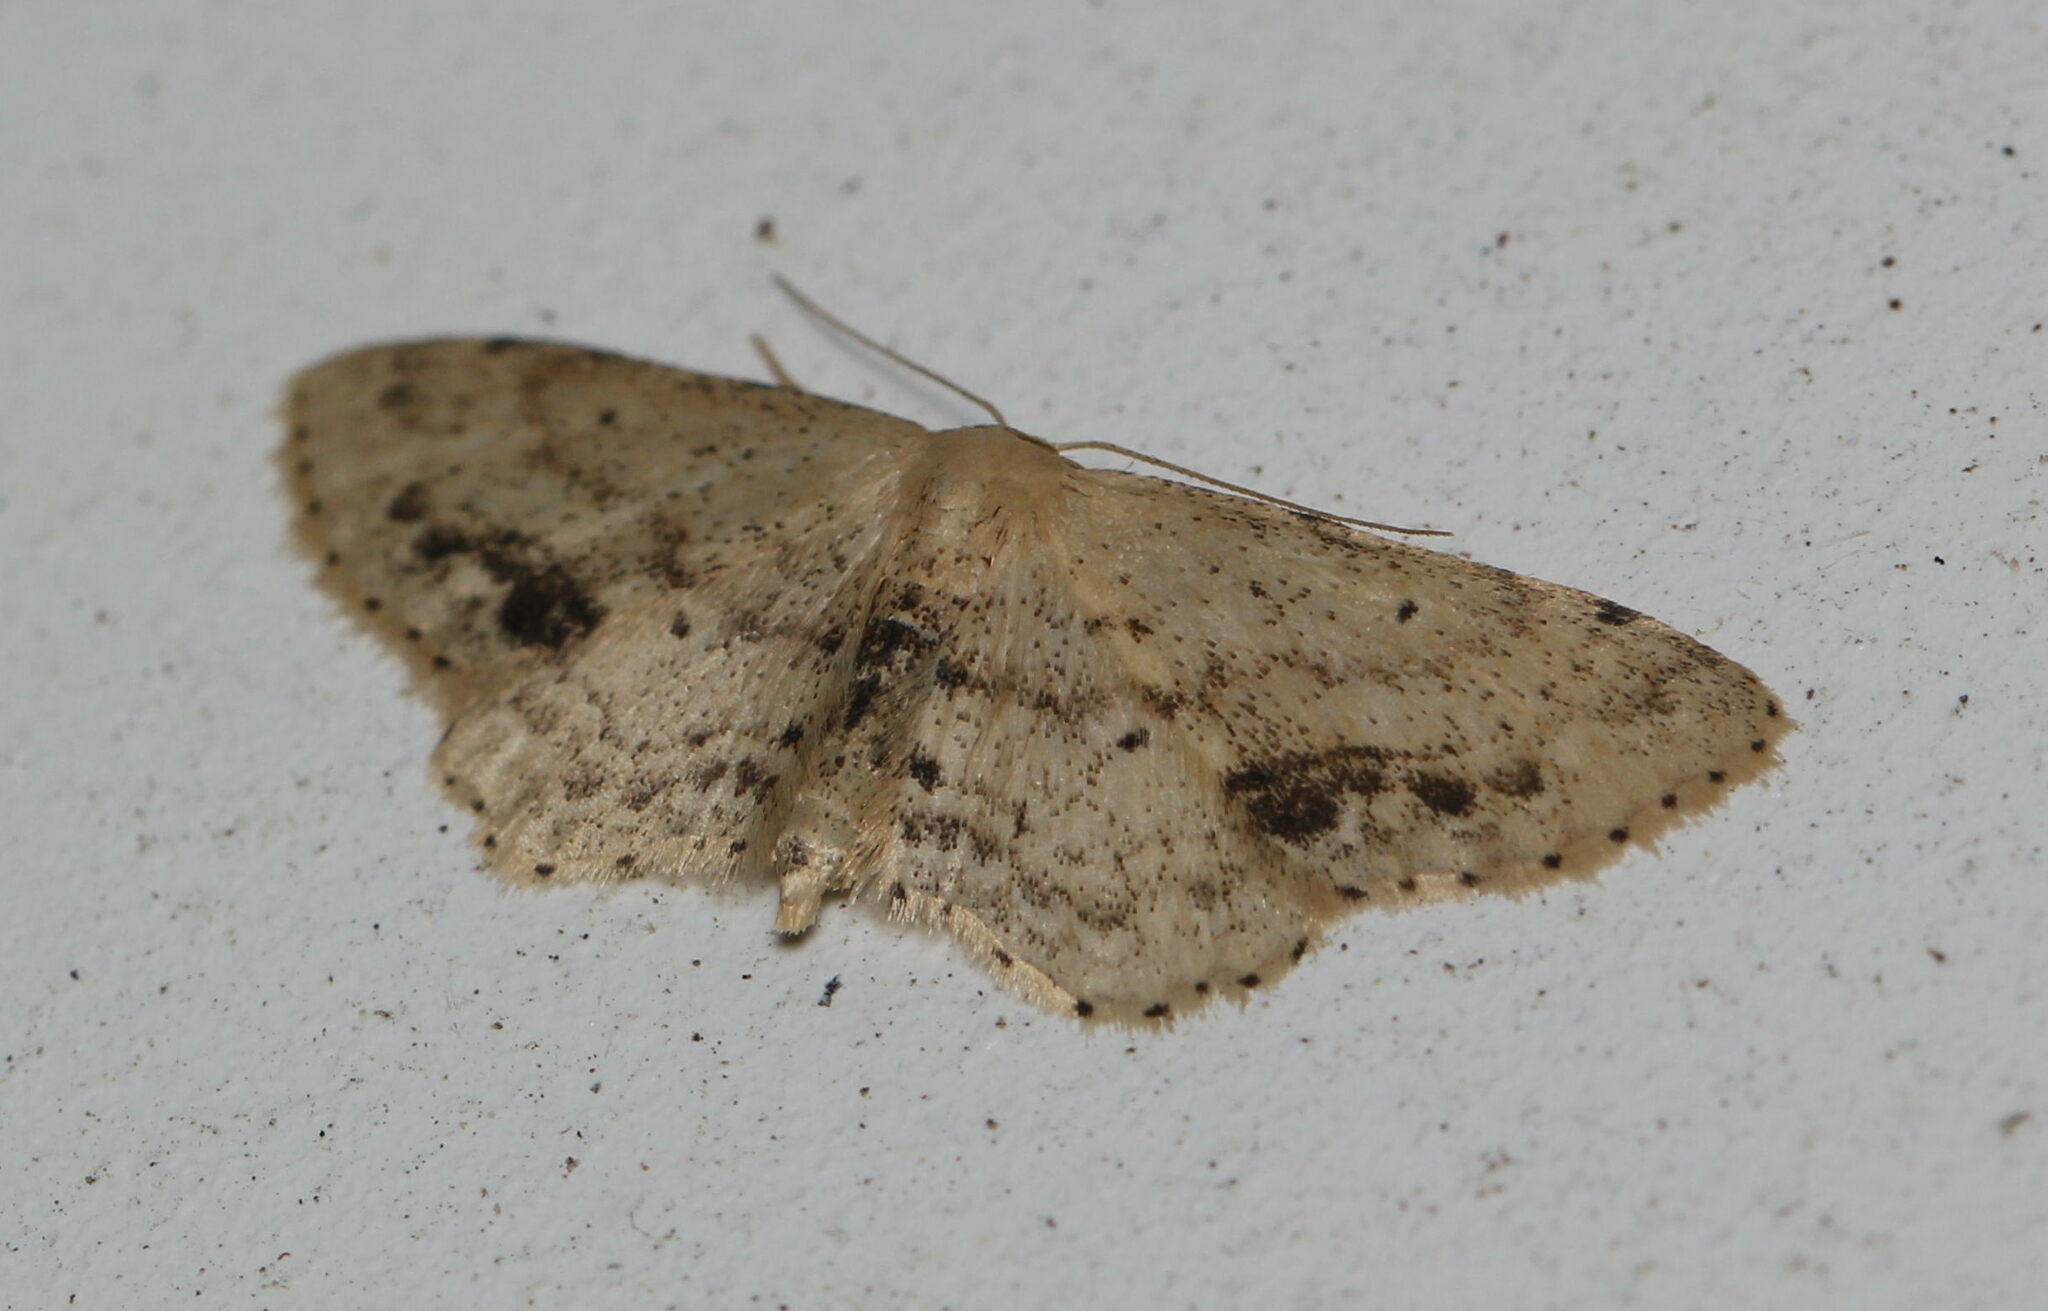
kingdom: Animalia
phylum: Arthropoda
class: Insecta
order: Lepidoptera
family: Geometridae
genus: Idaea
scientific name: Idaea dimidiata
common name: Single-dotted wave
